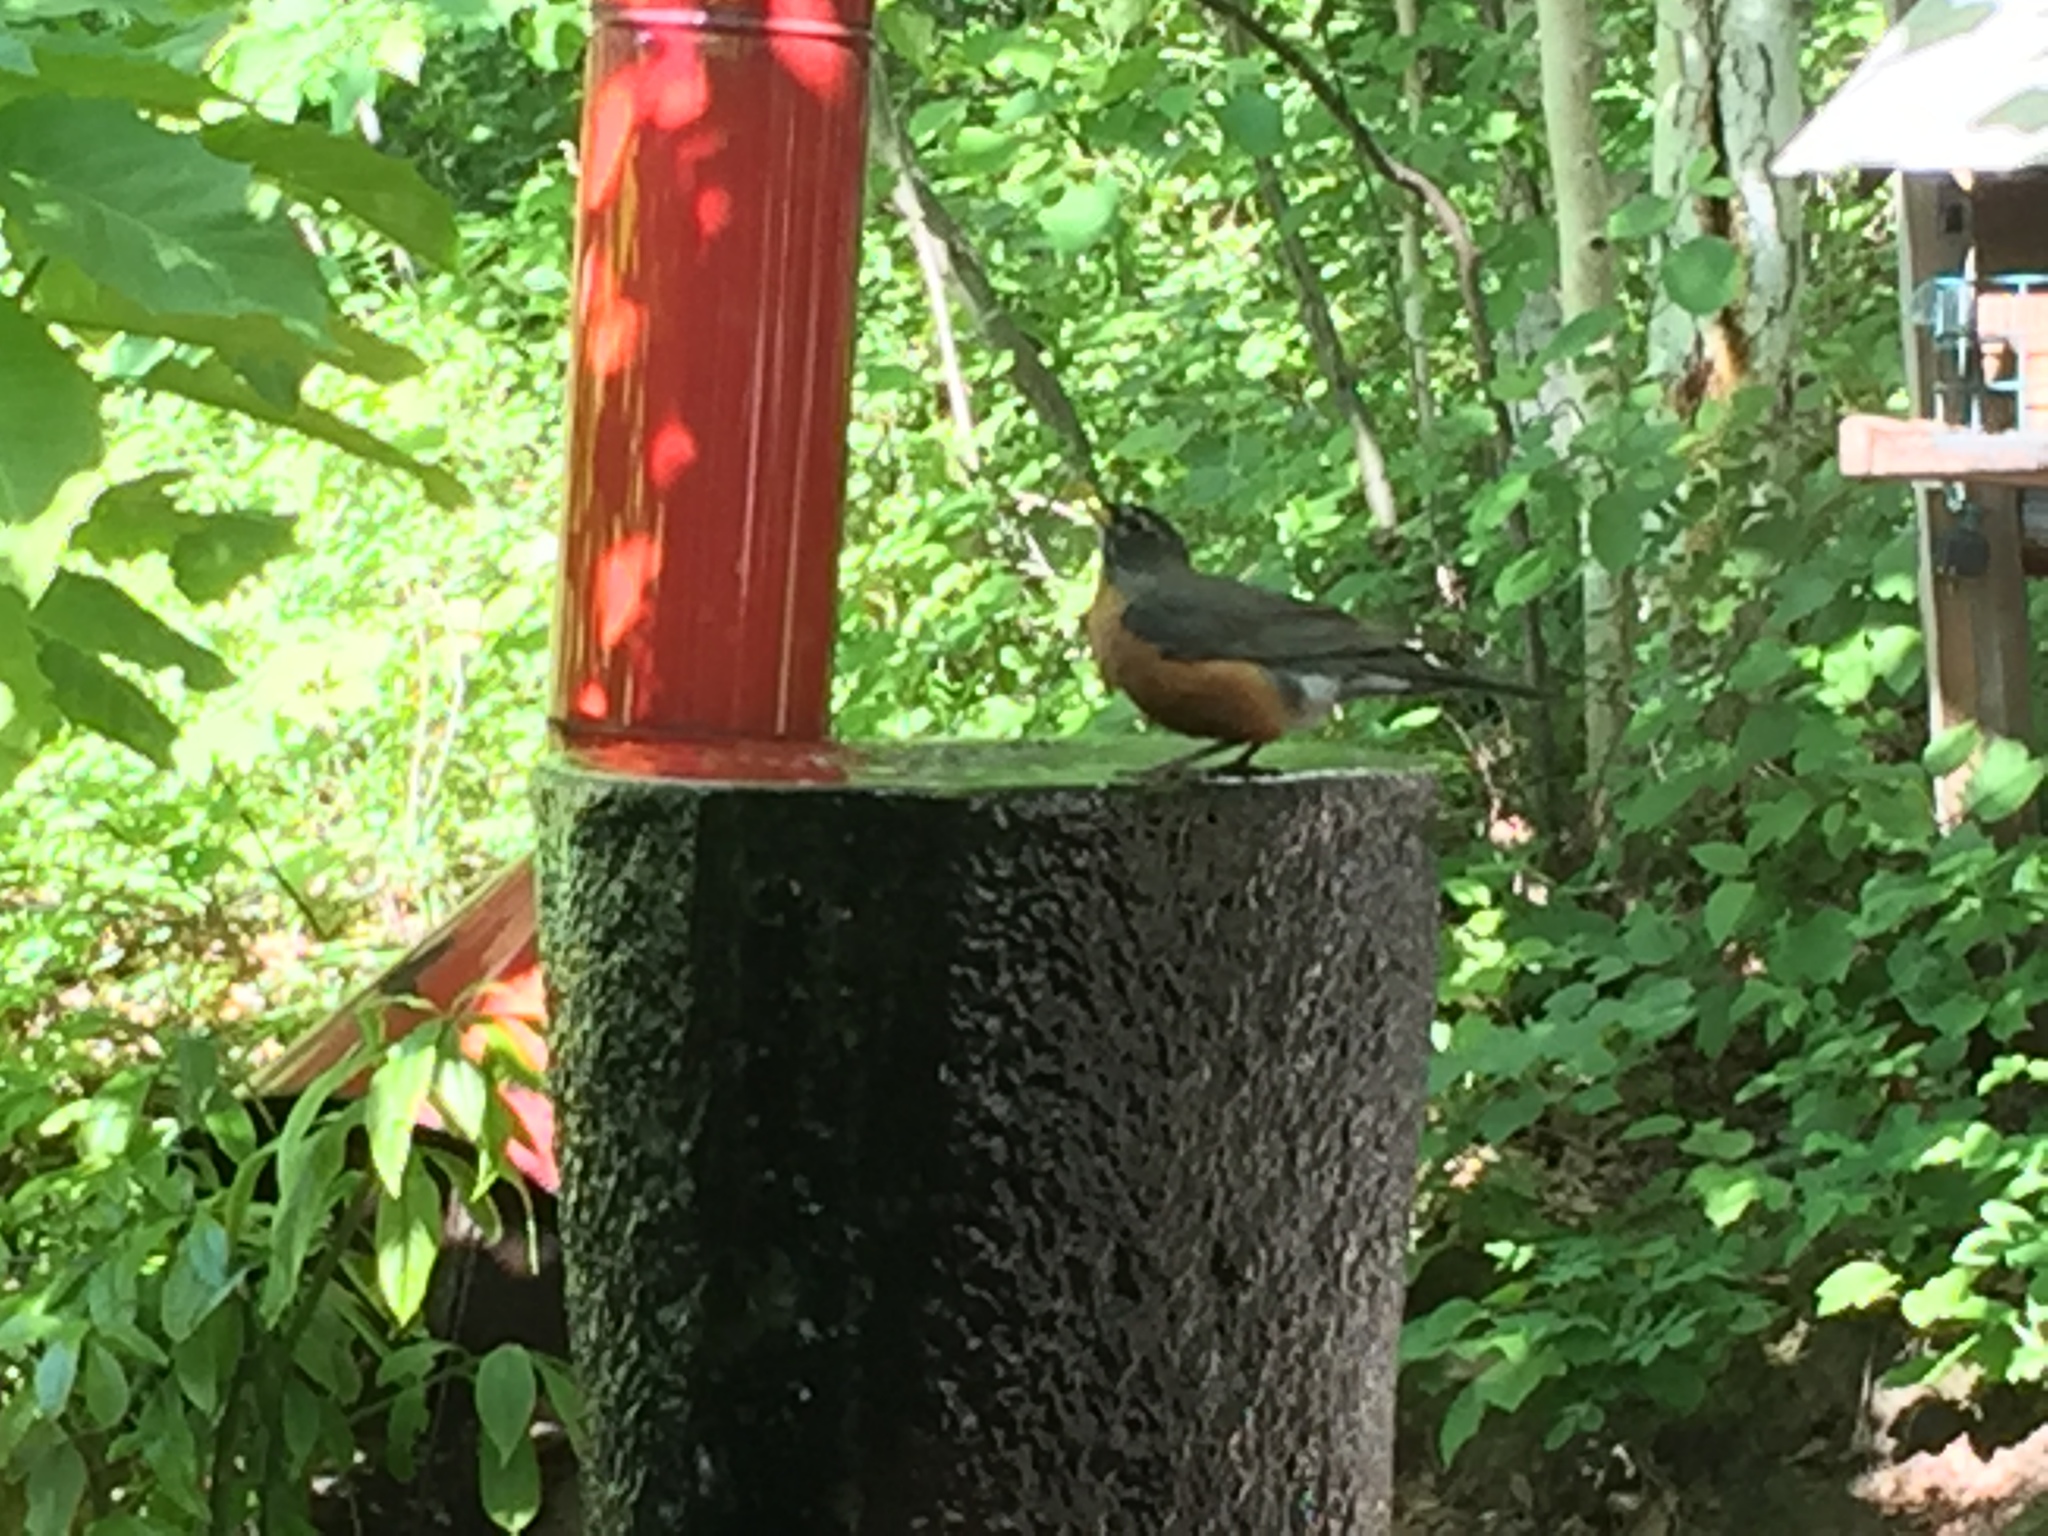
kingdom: Animalia
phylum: Chordata
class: Aves
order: Passeriformes
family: Turdidae
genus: Turdus
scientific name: Turdus migratorius
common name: American robin
